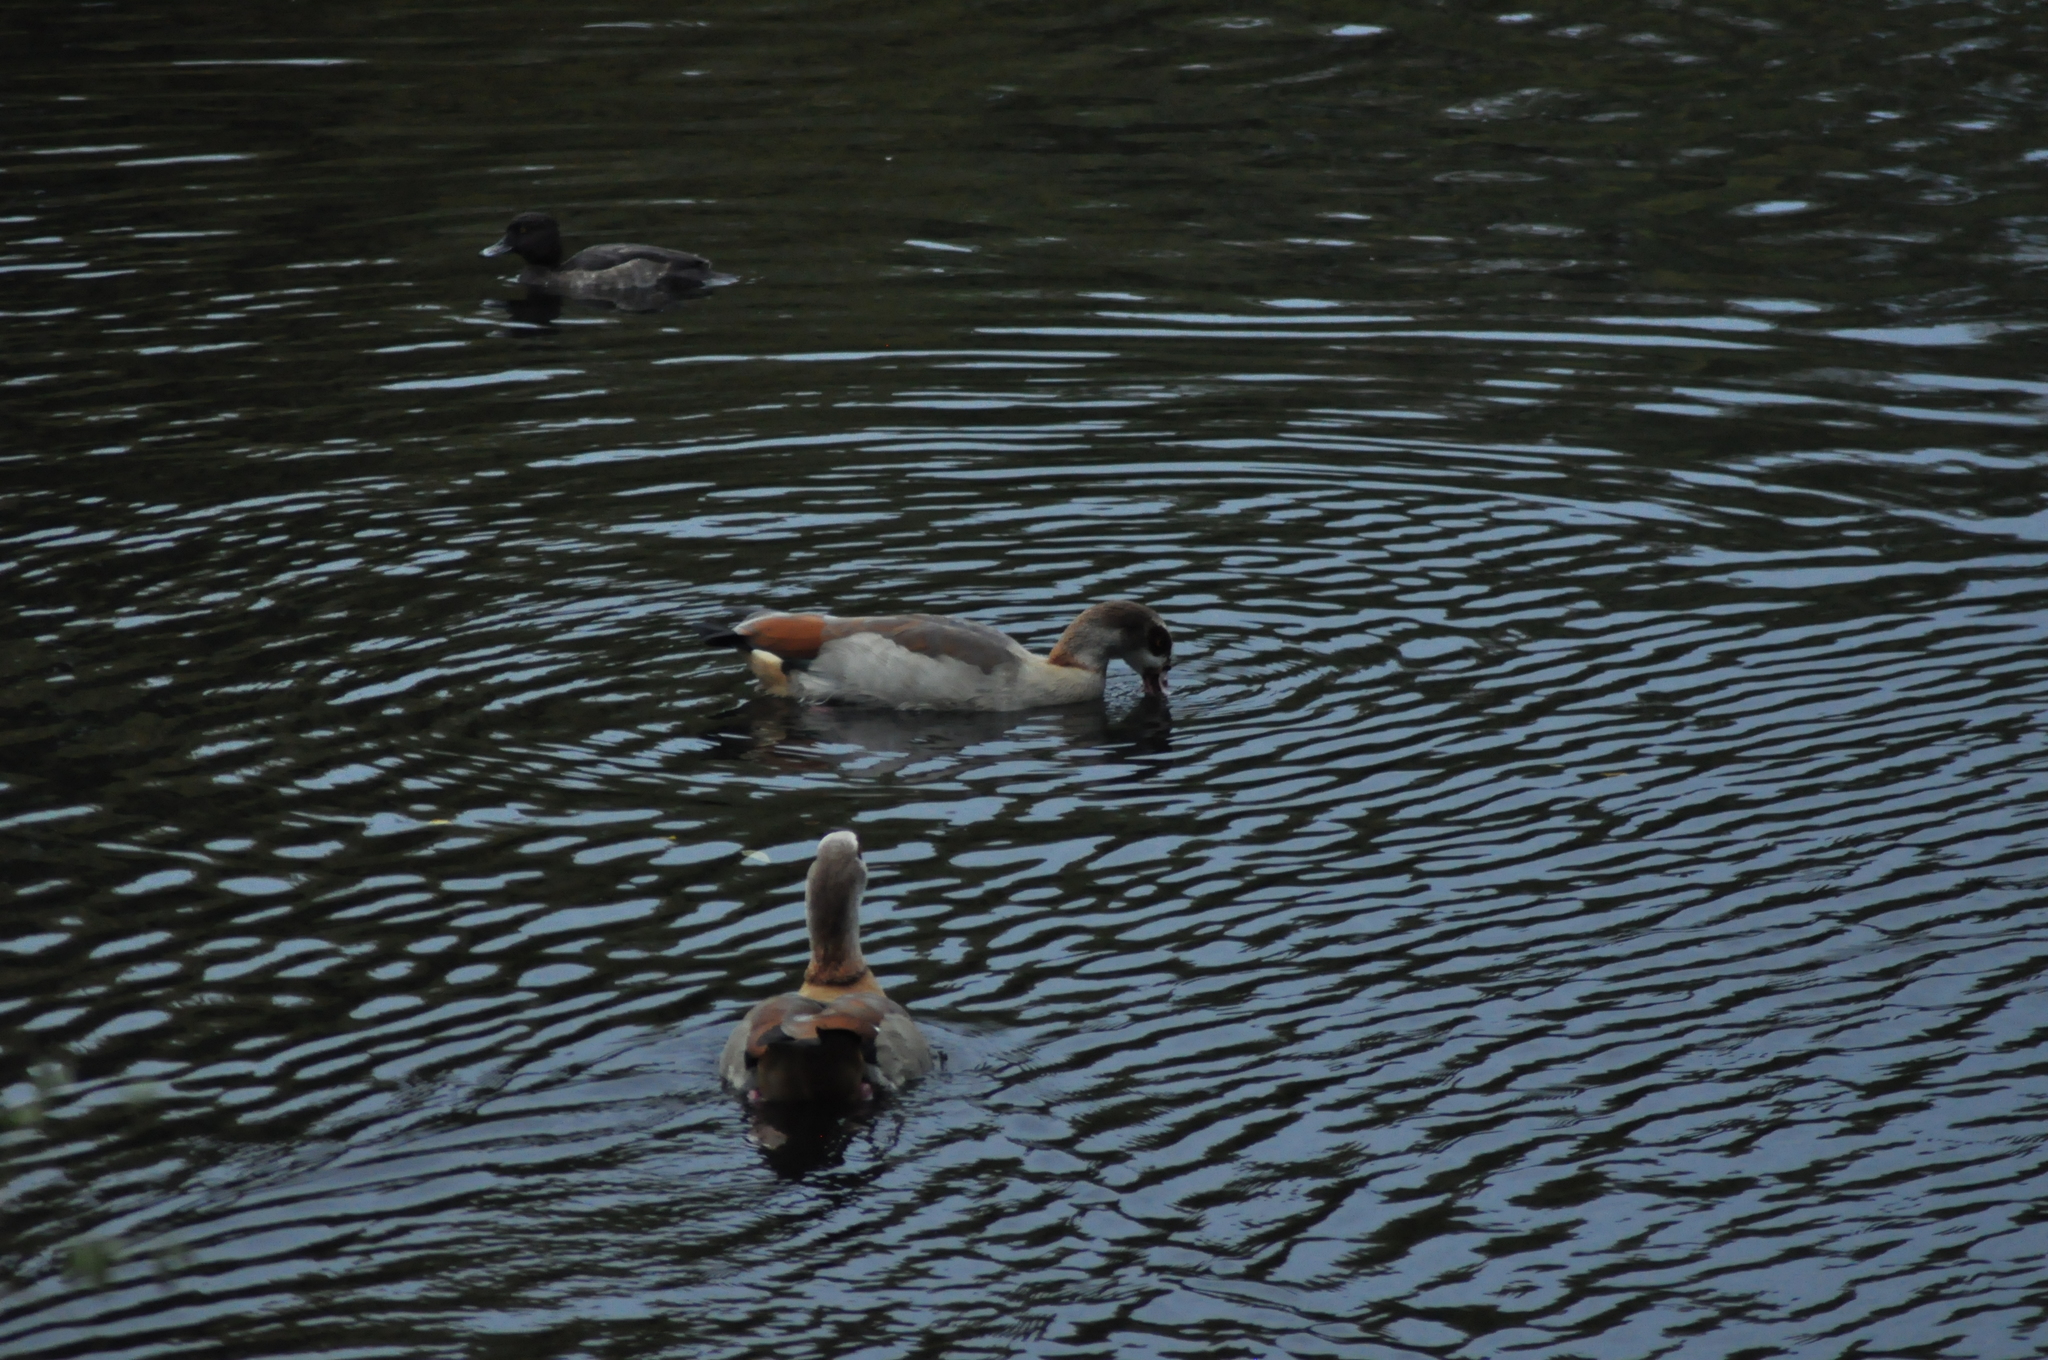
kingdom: Animalia
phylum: Chordata
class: Aves
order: Anseriformes
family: Anatidae
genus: Alopochen
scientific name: Alopochen aegyptiaca
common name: Egyptian goose
